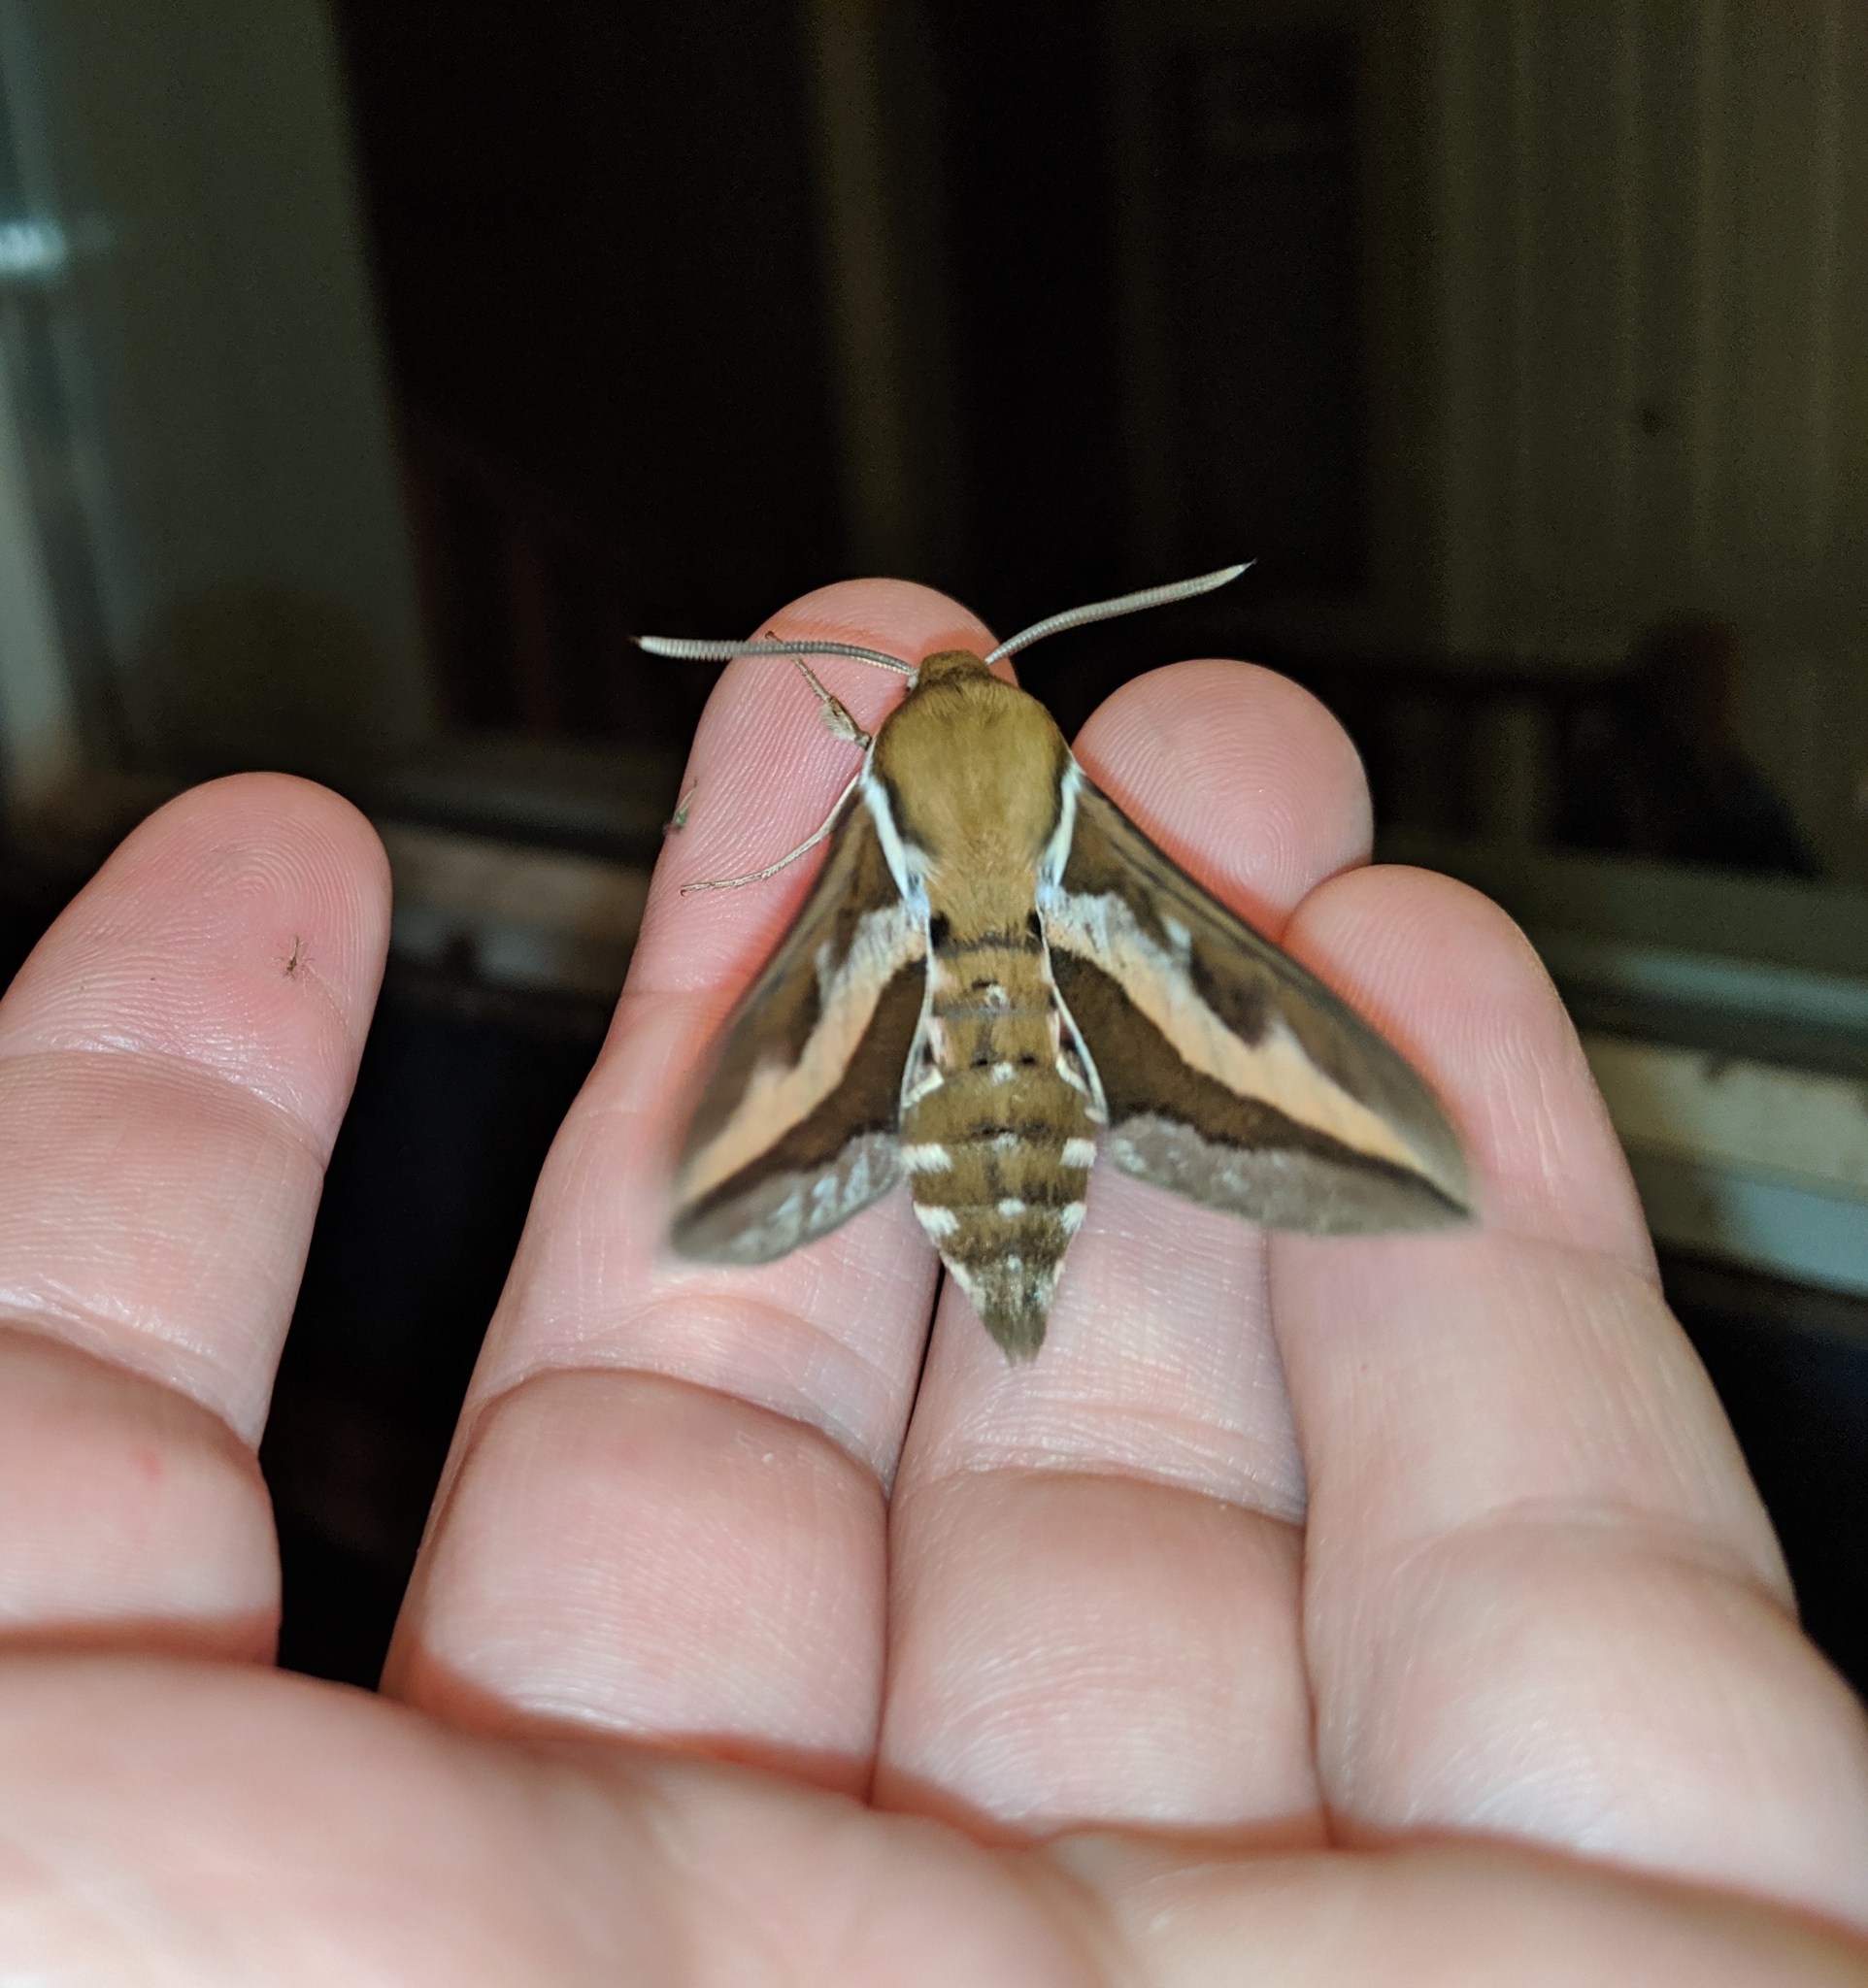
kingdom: Animalia
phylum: Arthropoda
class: Insecta
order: Lepidoptera
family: Sphingidae
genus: Hyles
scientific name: Hyles gallii
